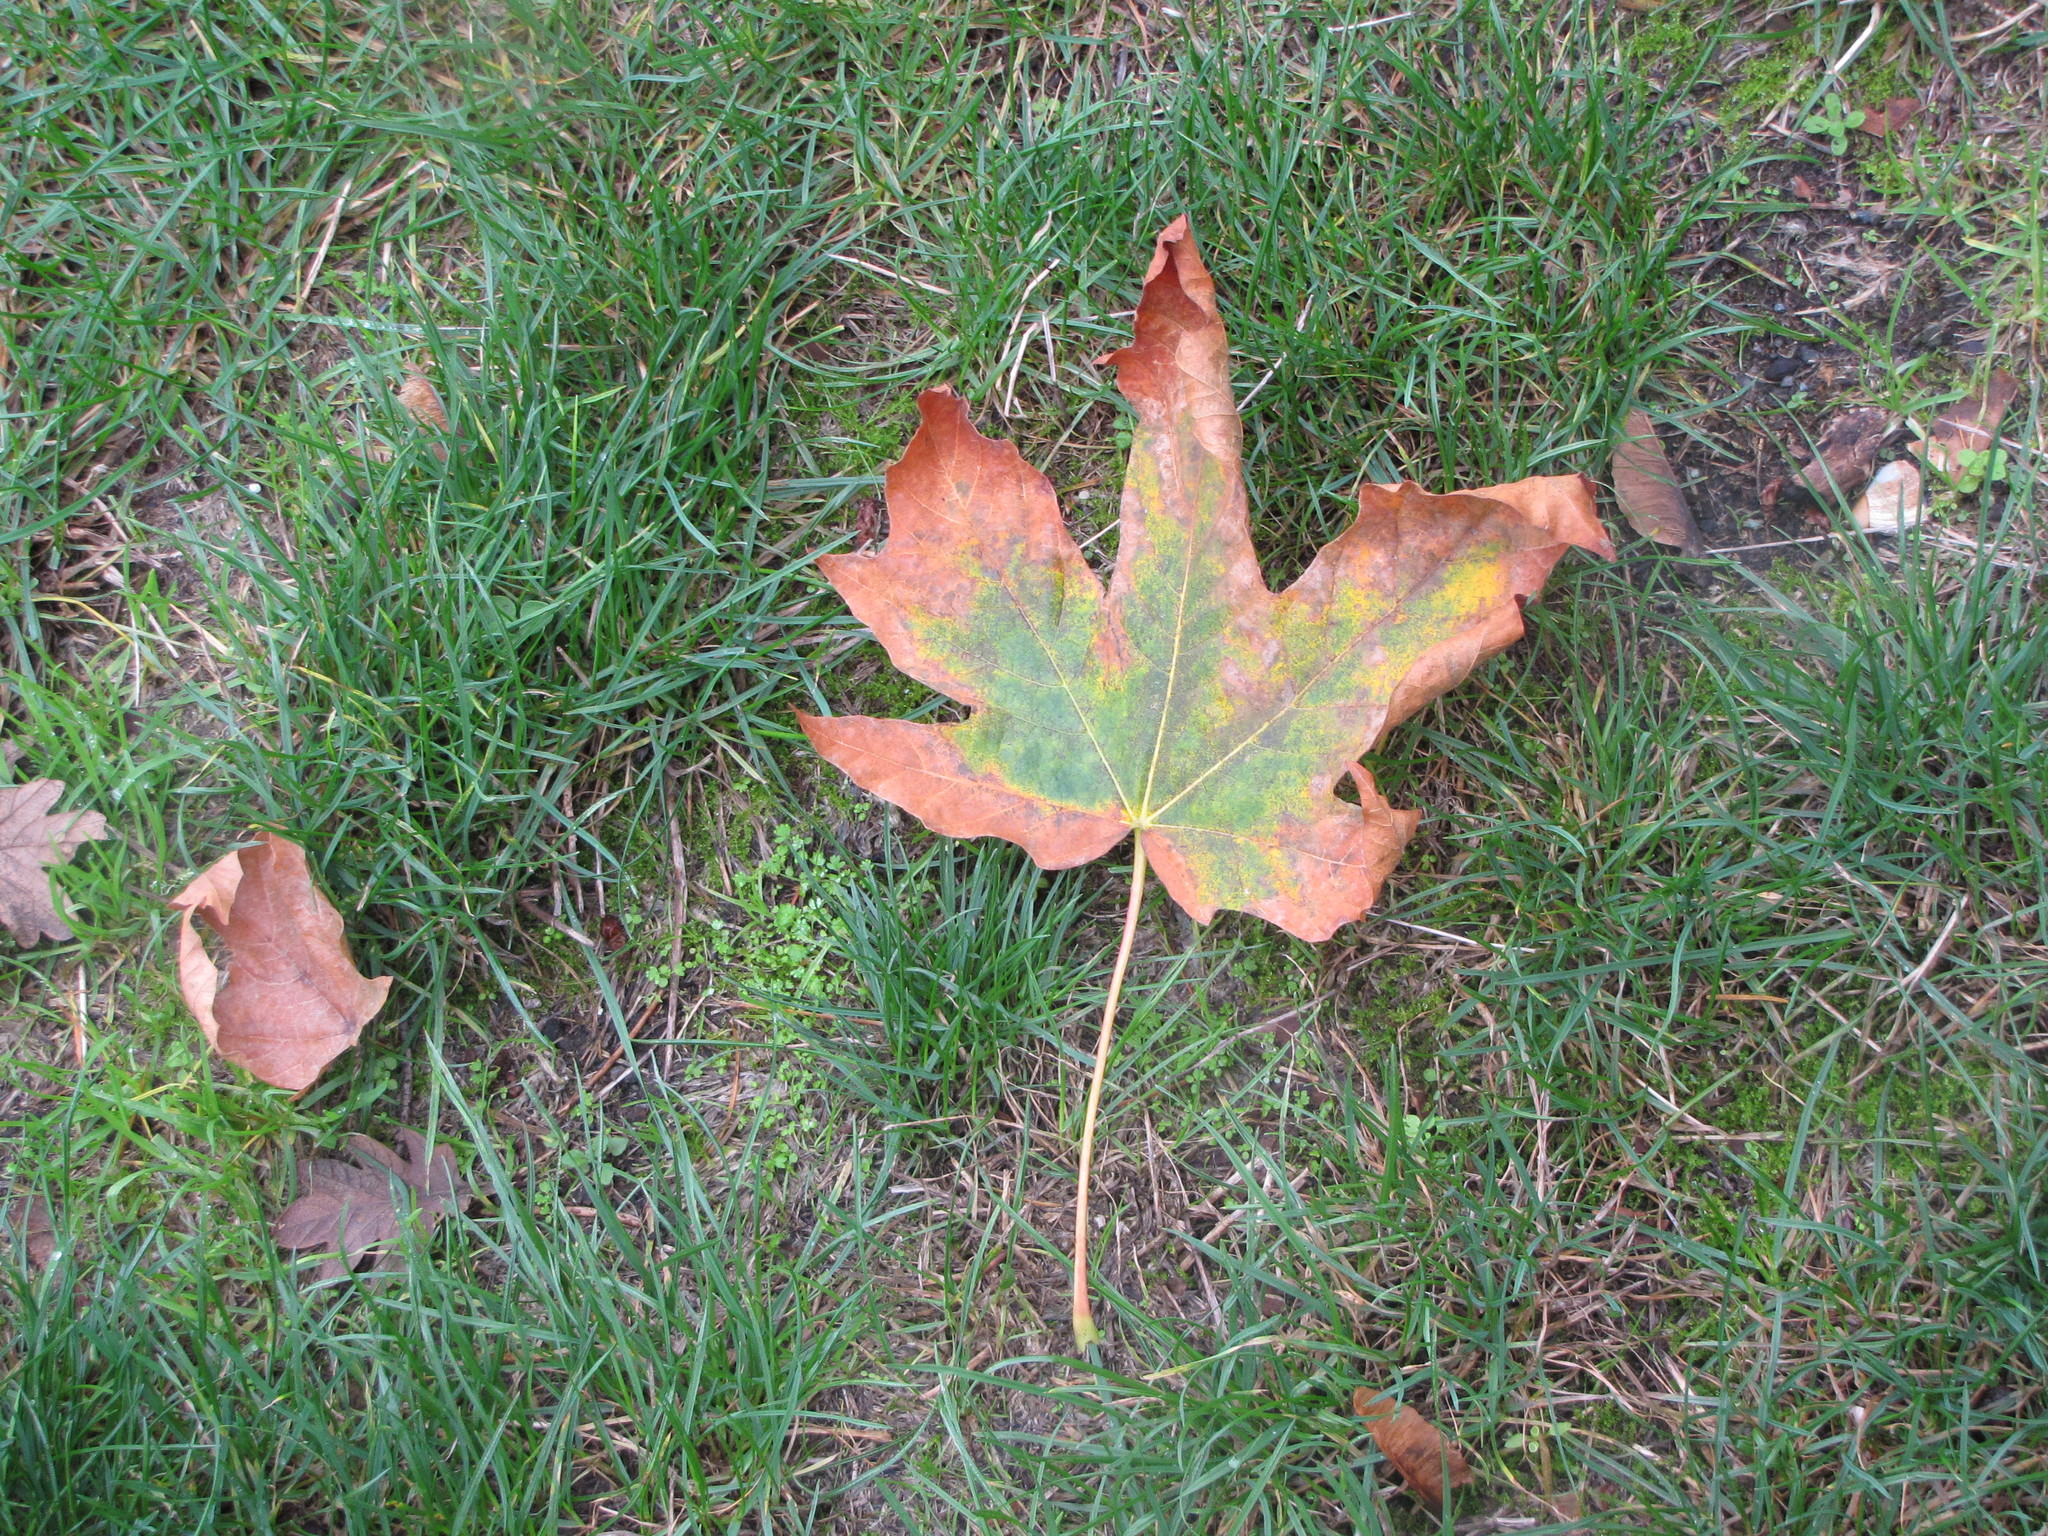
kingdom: Plantae
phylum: Tracheophyta
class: Magnoliopsida
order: Sapindales
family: Sapindaceae
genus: Acer
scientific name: Acer macrophyllum
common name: Oregon maple
